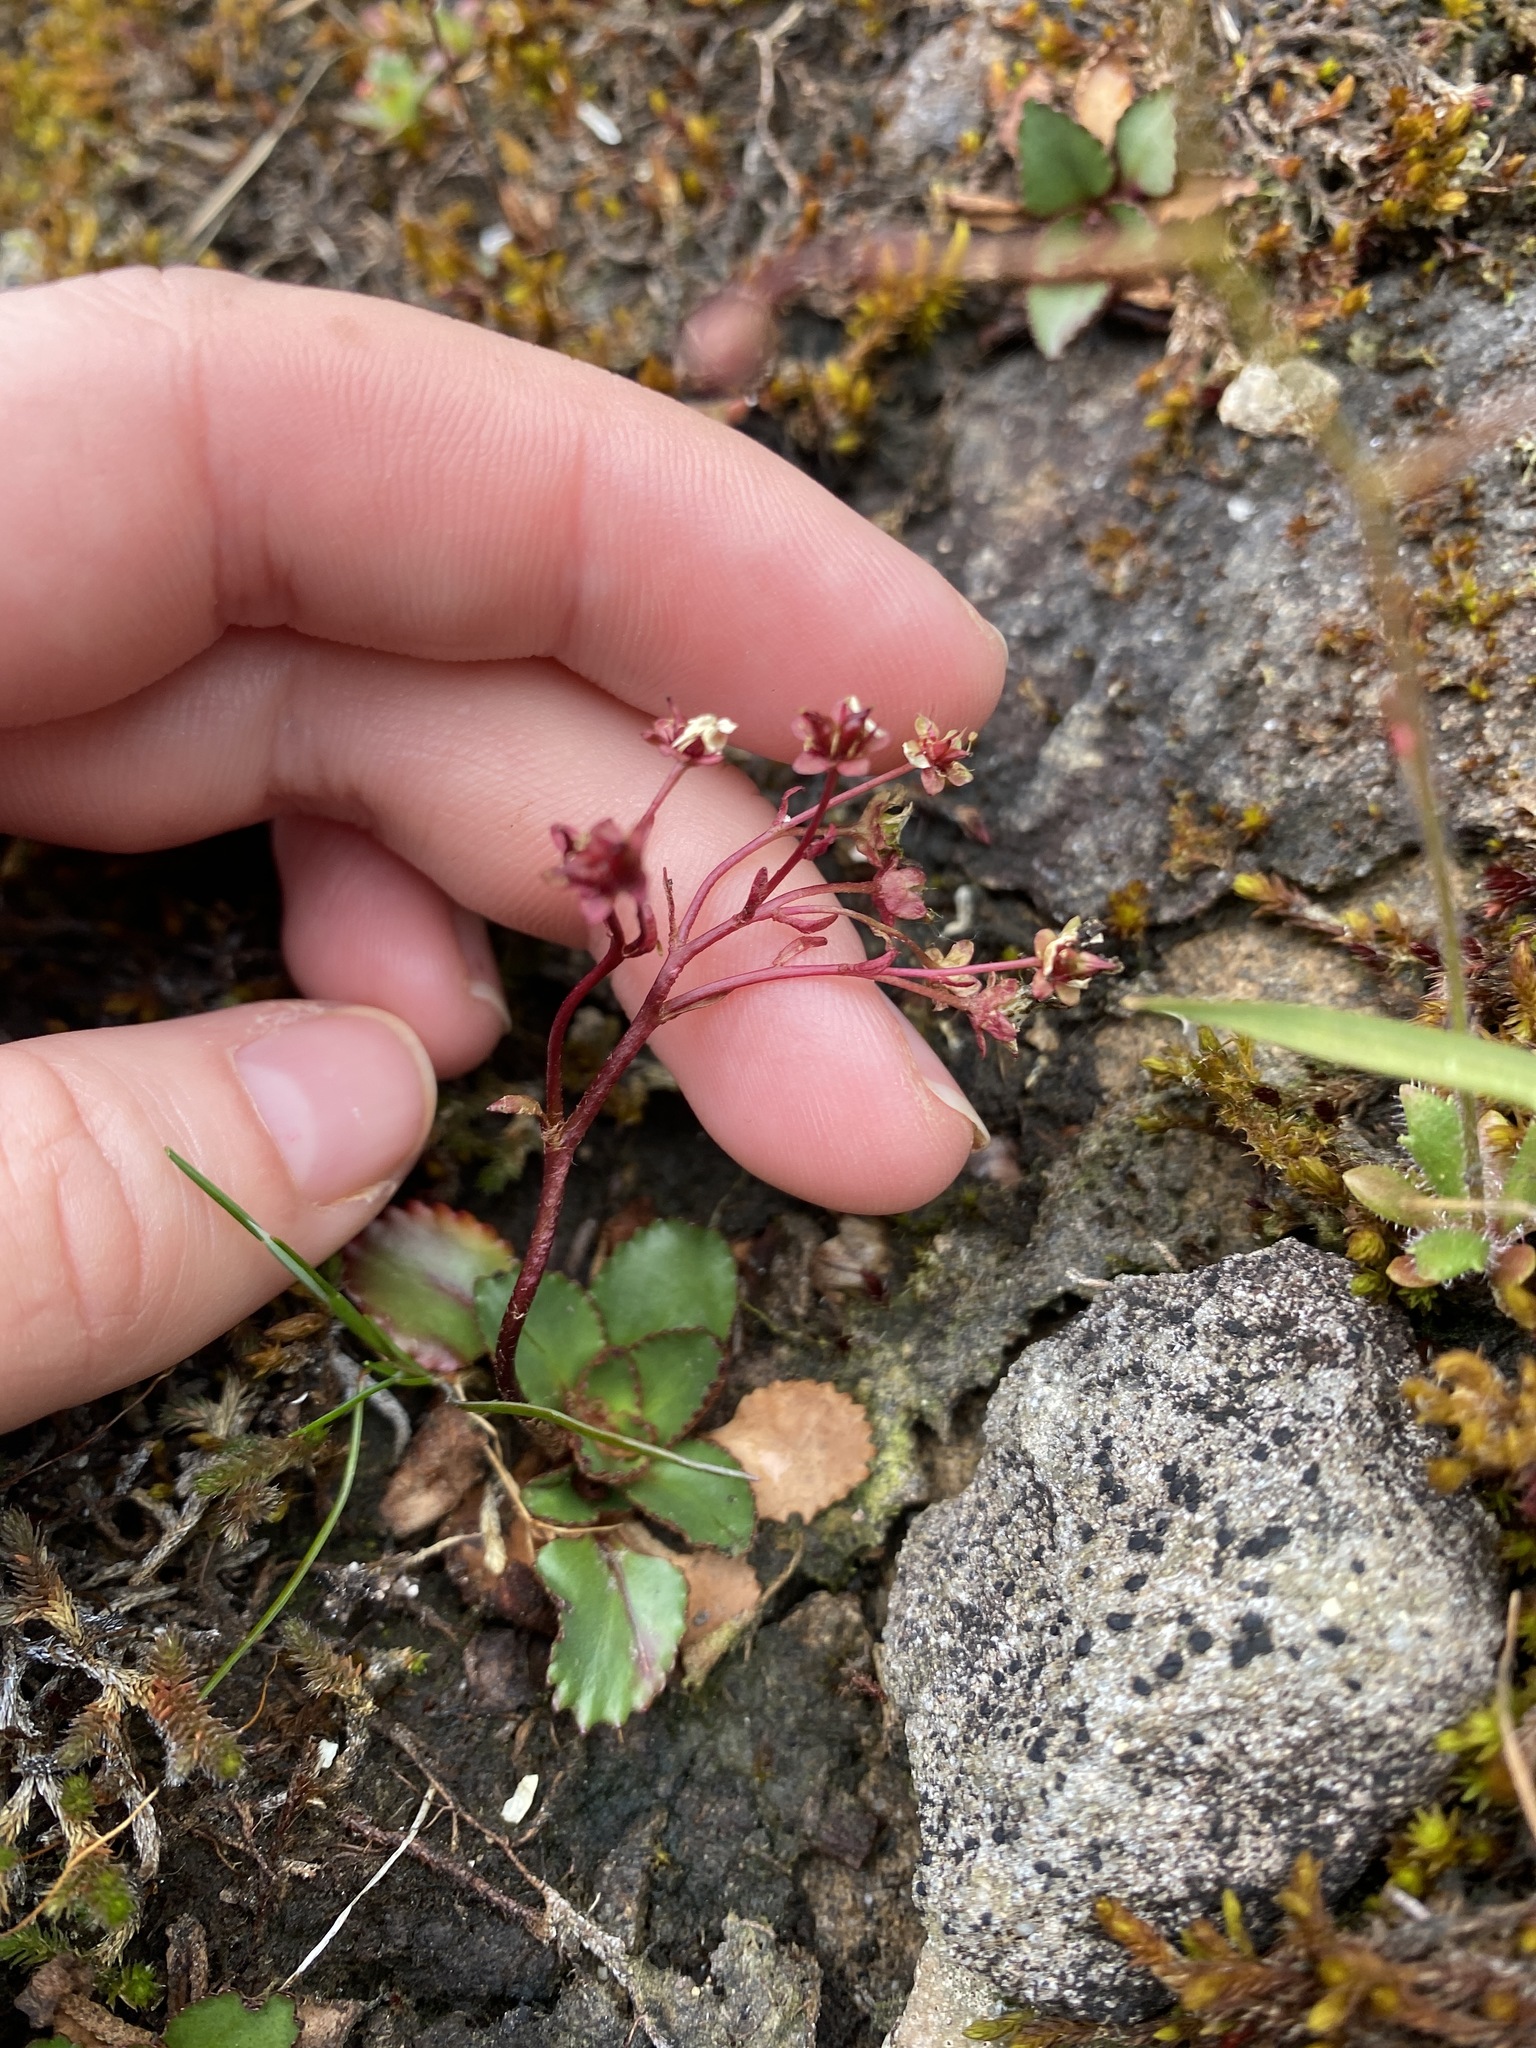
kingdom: Plantae
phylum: Tracheophyta
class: Magnoliopsida
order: Saxifragales
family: Saxifragaceae
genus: Micranthes
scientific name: Micranthes rufidula
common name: Rustyhair saxifrage
